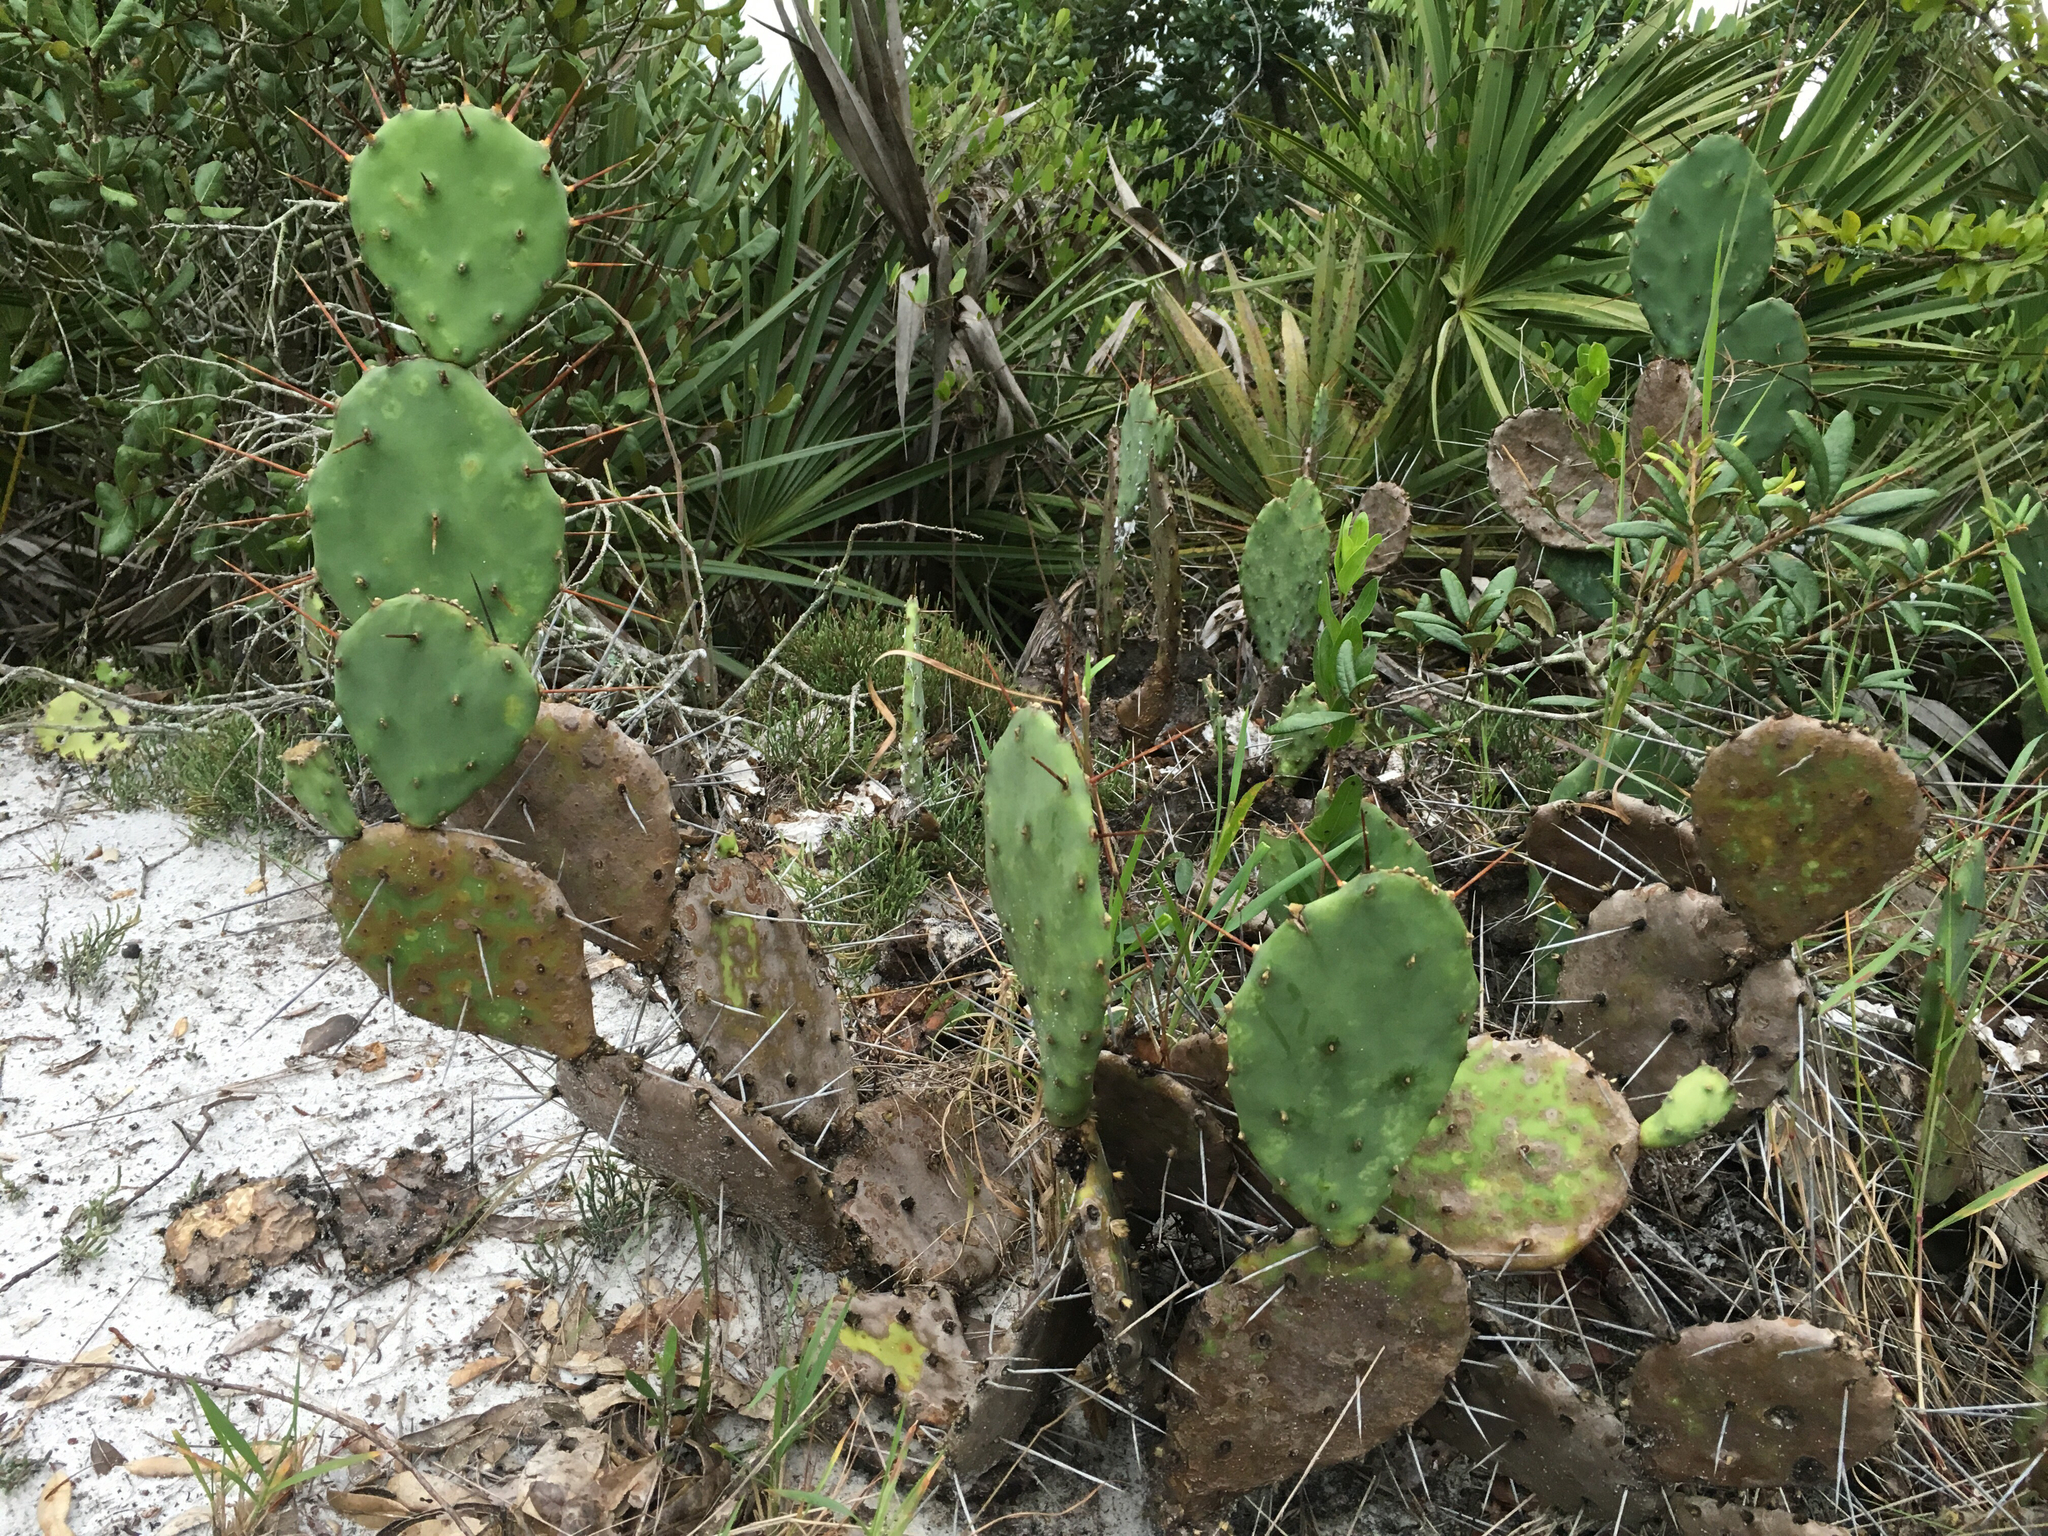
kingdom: Plantae
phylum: Tracheophyta
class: Magnoliopsida
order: Caryophyllales
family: Cactaceae
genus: Opuntia
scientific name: Opuntia austrina
